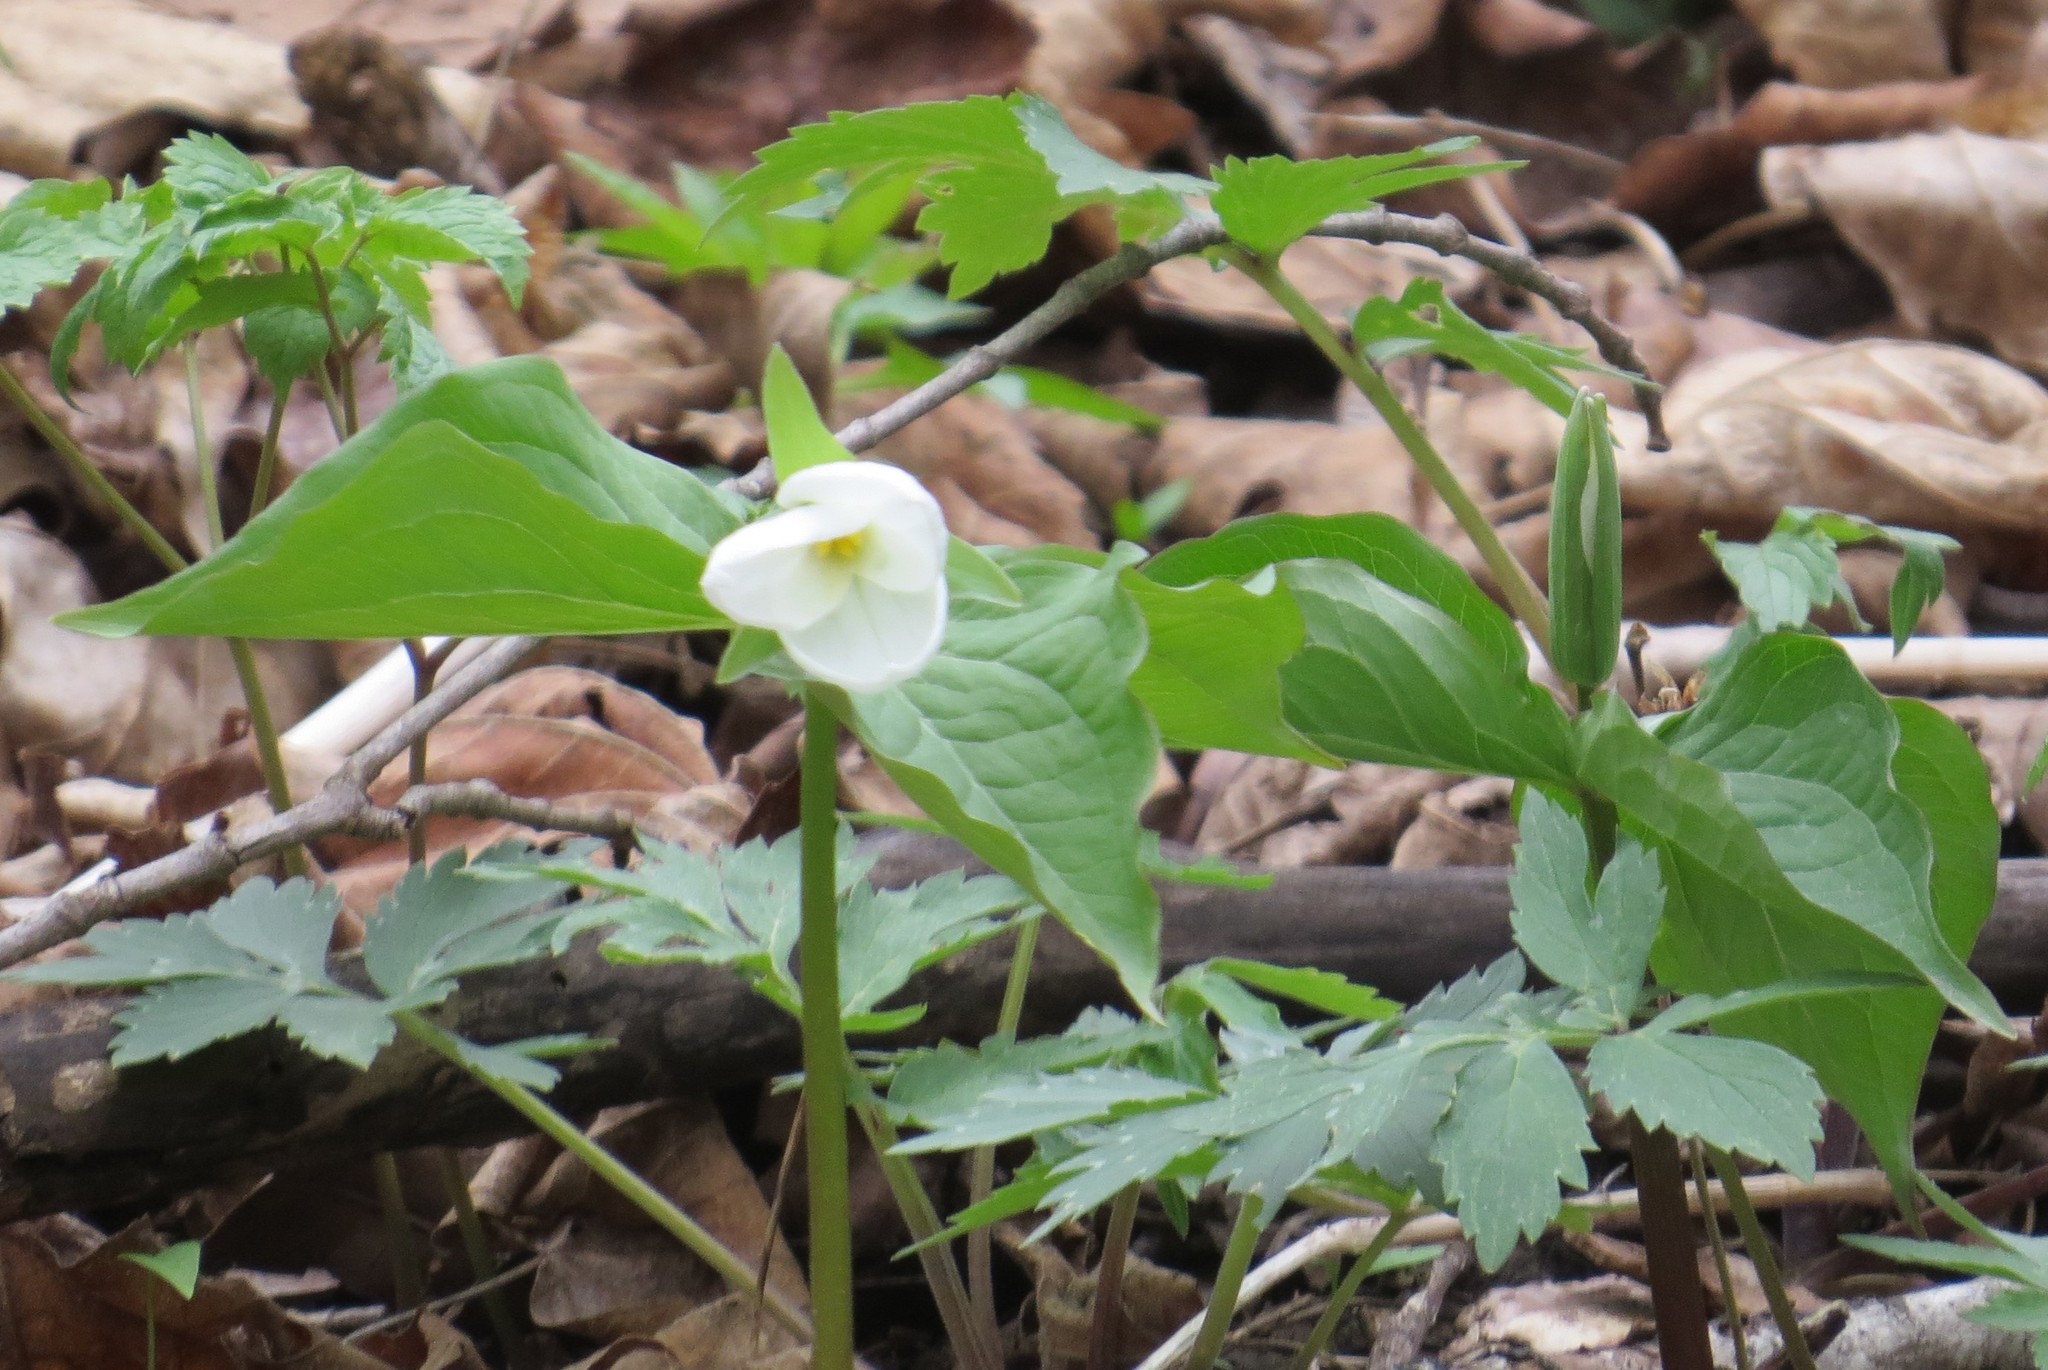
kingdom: Plantae
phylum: Tracheophyta
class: Liliopsida
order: Liliales
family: Melanthiaceae
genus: Trillium
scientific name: Trillium grandiflorum
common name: Great white trillium
